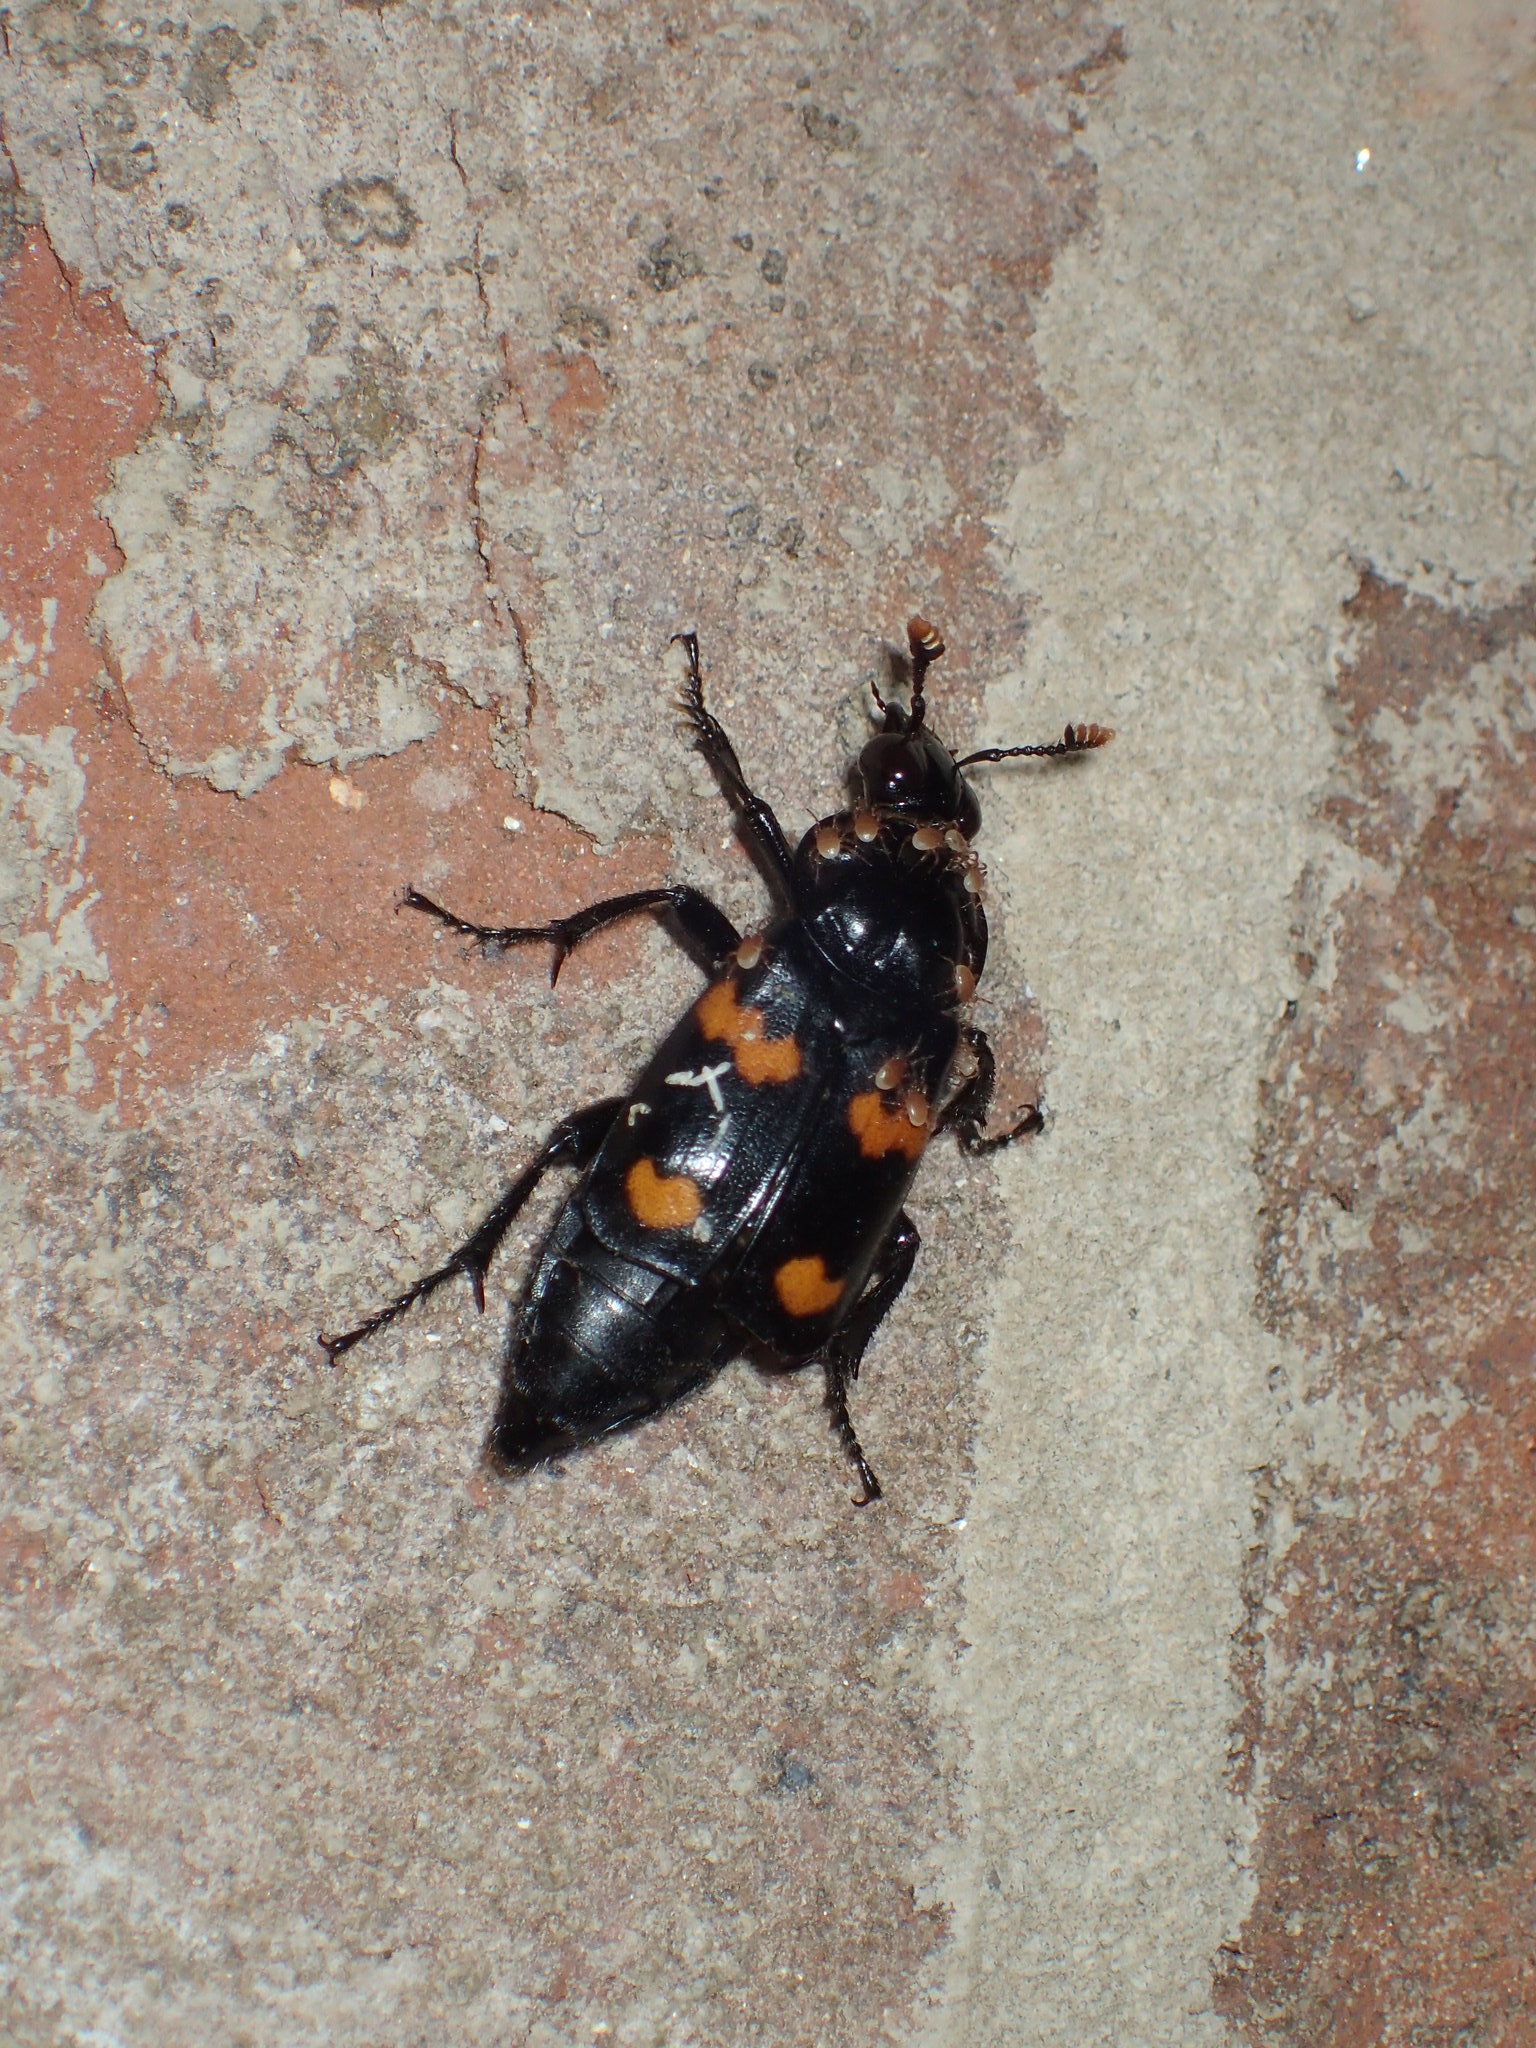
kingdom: Animalia
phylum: Arthropoda
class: Insecta
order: Coleoptera
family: Staphylinidae
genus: Nicrophorus
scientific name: Nicrophorus orbicollis
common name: Roundneck sexton beetle
